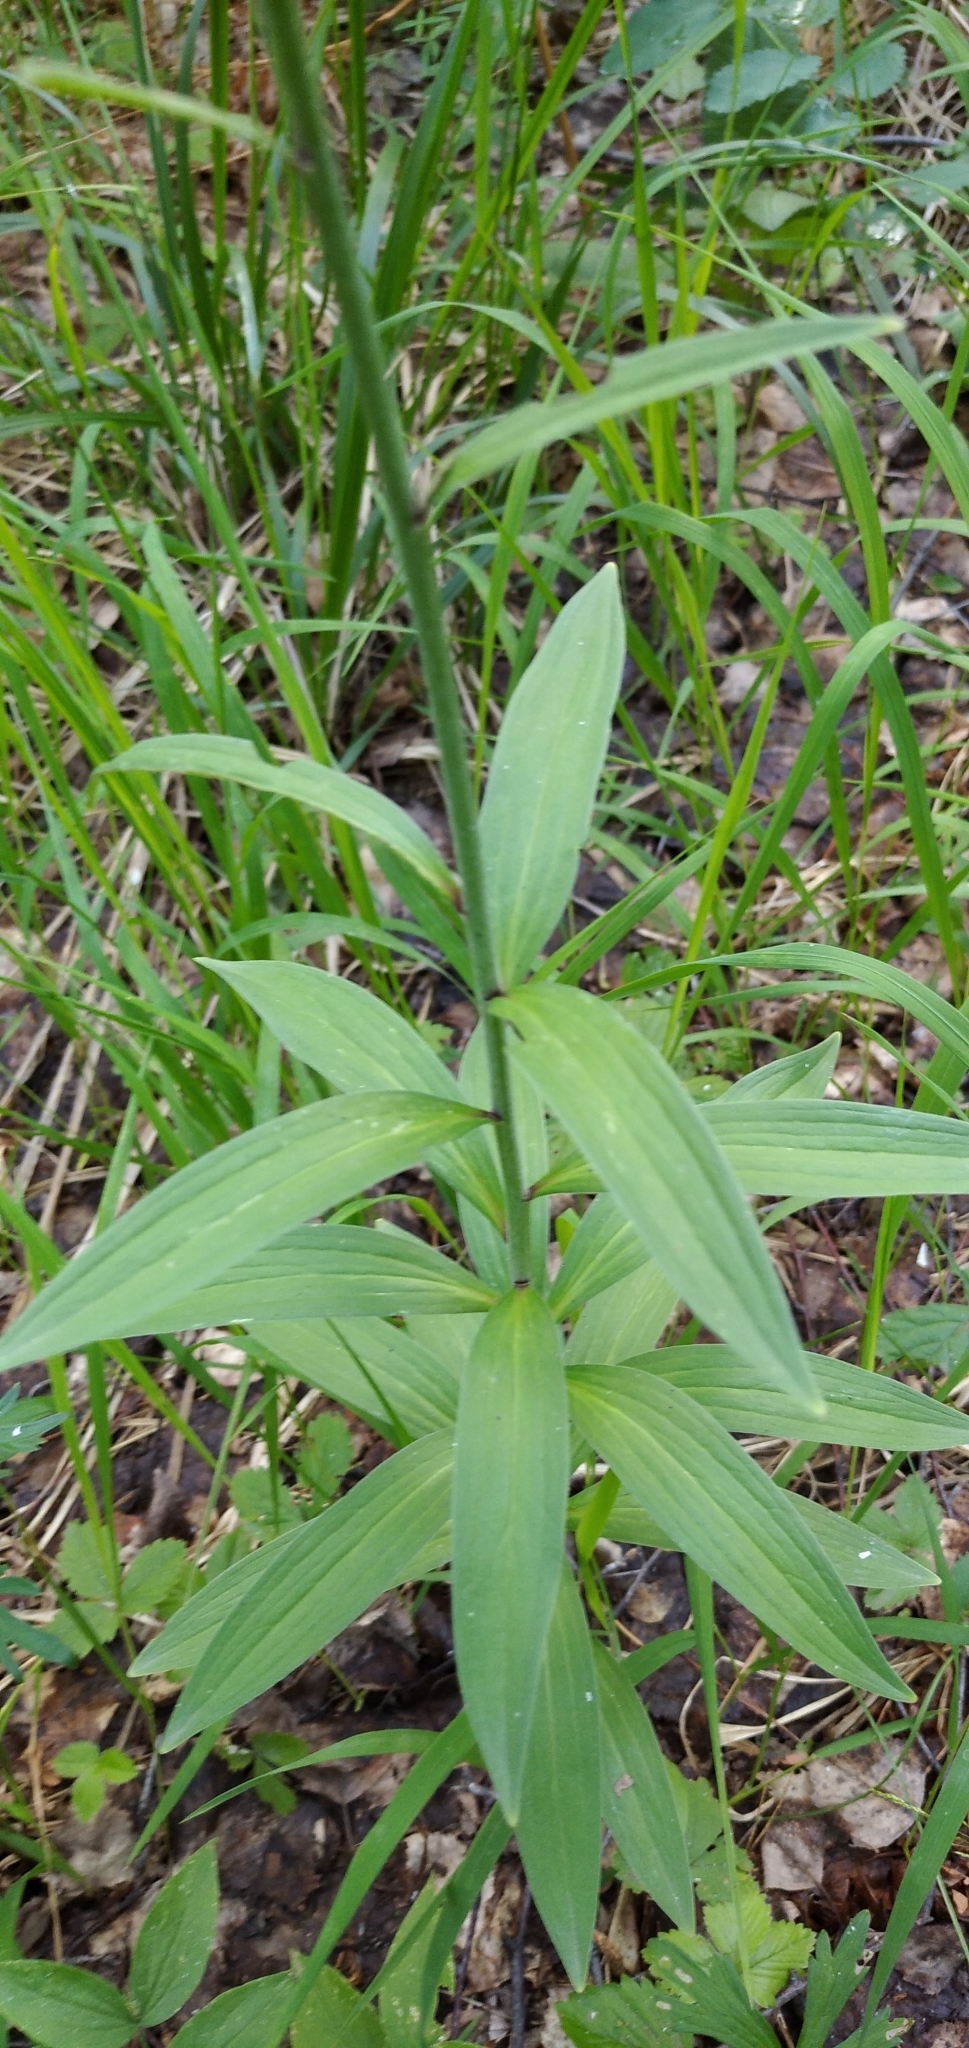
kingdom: Plantae
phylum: Tracheophyta
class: Liliopsida
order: Liliales
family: Liliaceae
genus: Lilium
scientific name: Lilium martagon
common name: Martagon lily
